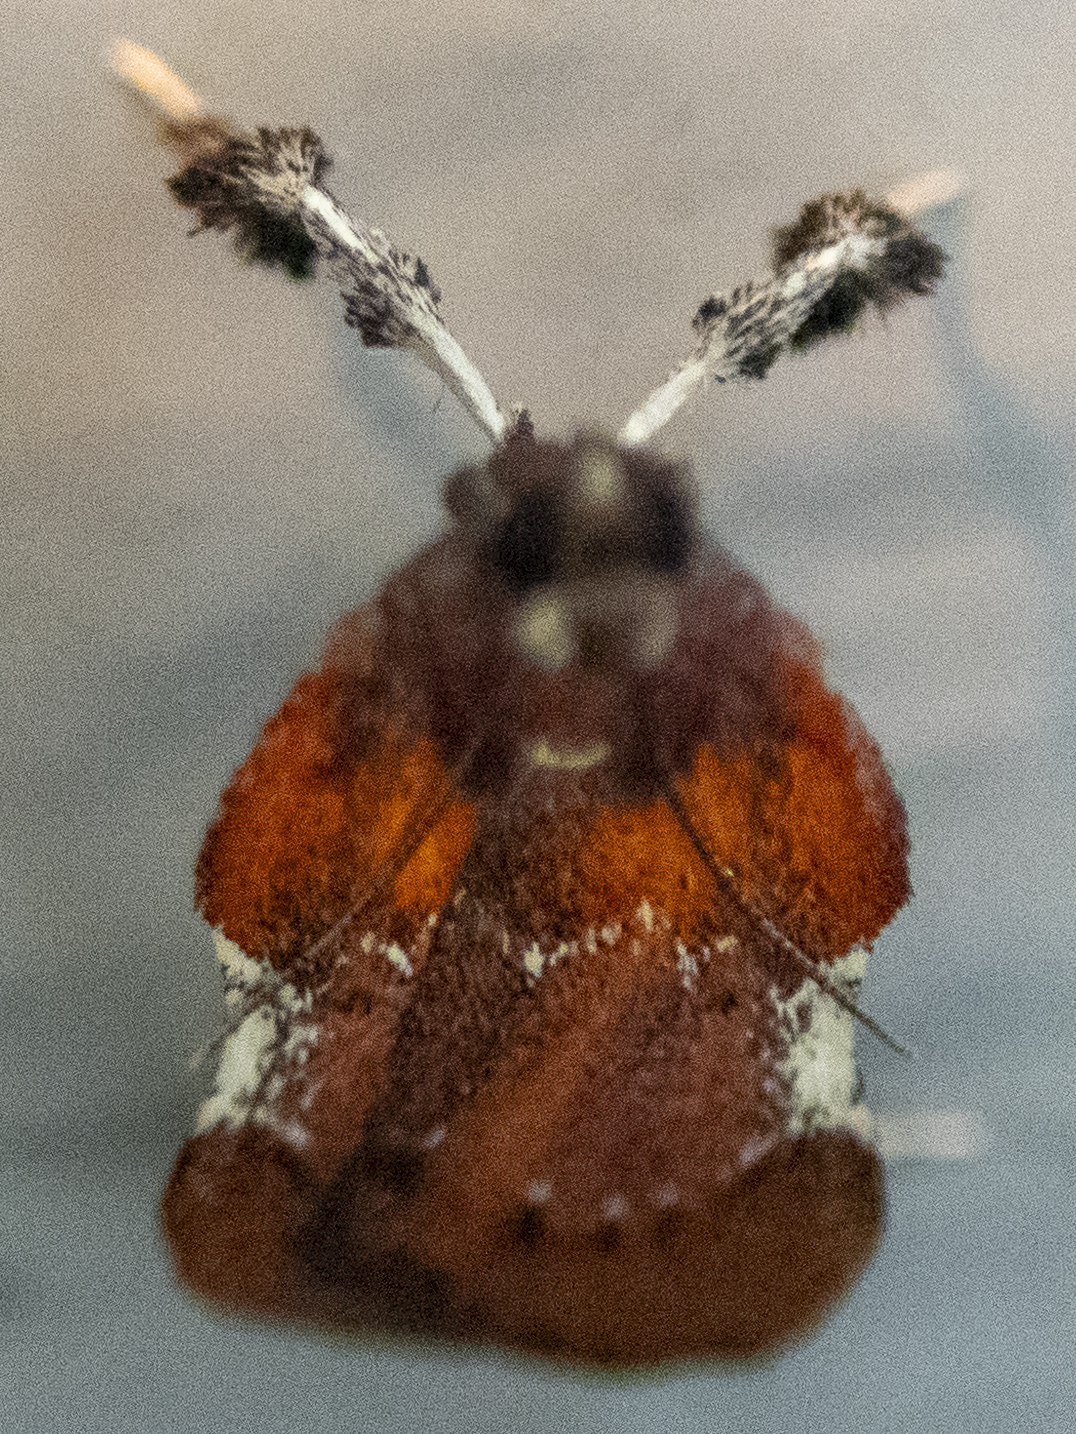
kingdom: Animalia
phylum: Arthropoda
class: Insecta
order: Lepidoptera
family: Pyralidae
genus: Galasa
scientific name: Galasa nigrinodis
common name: Boxwood leaftier moth
